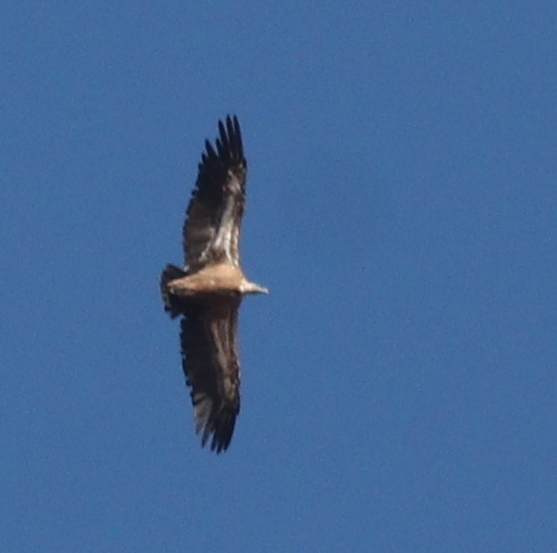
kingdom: Animalia
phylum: Chordata
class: Aves
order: Accipitriformes
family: Accipitridae
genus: Gyps
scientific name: Gyps fulvus
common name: Griffon vulture
